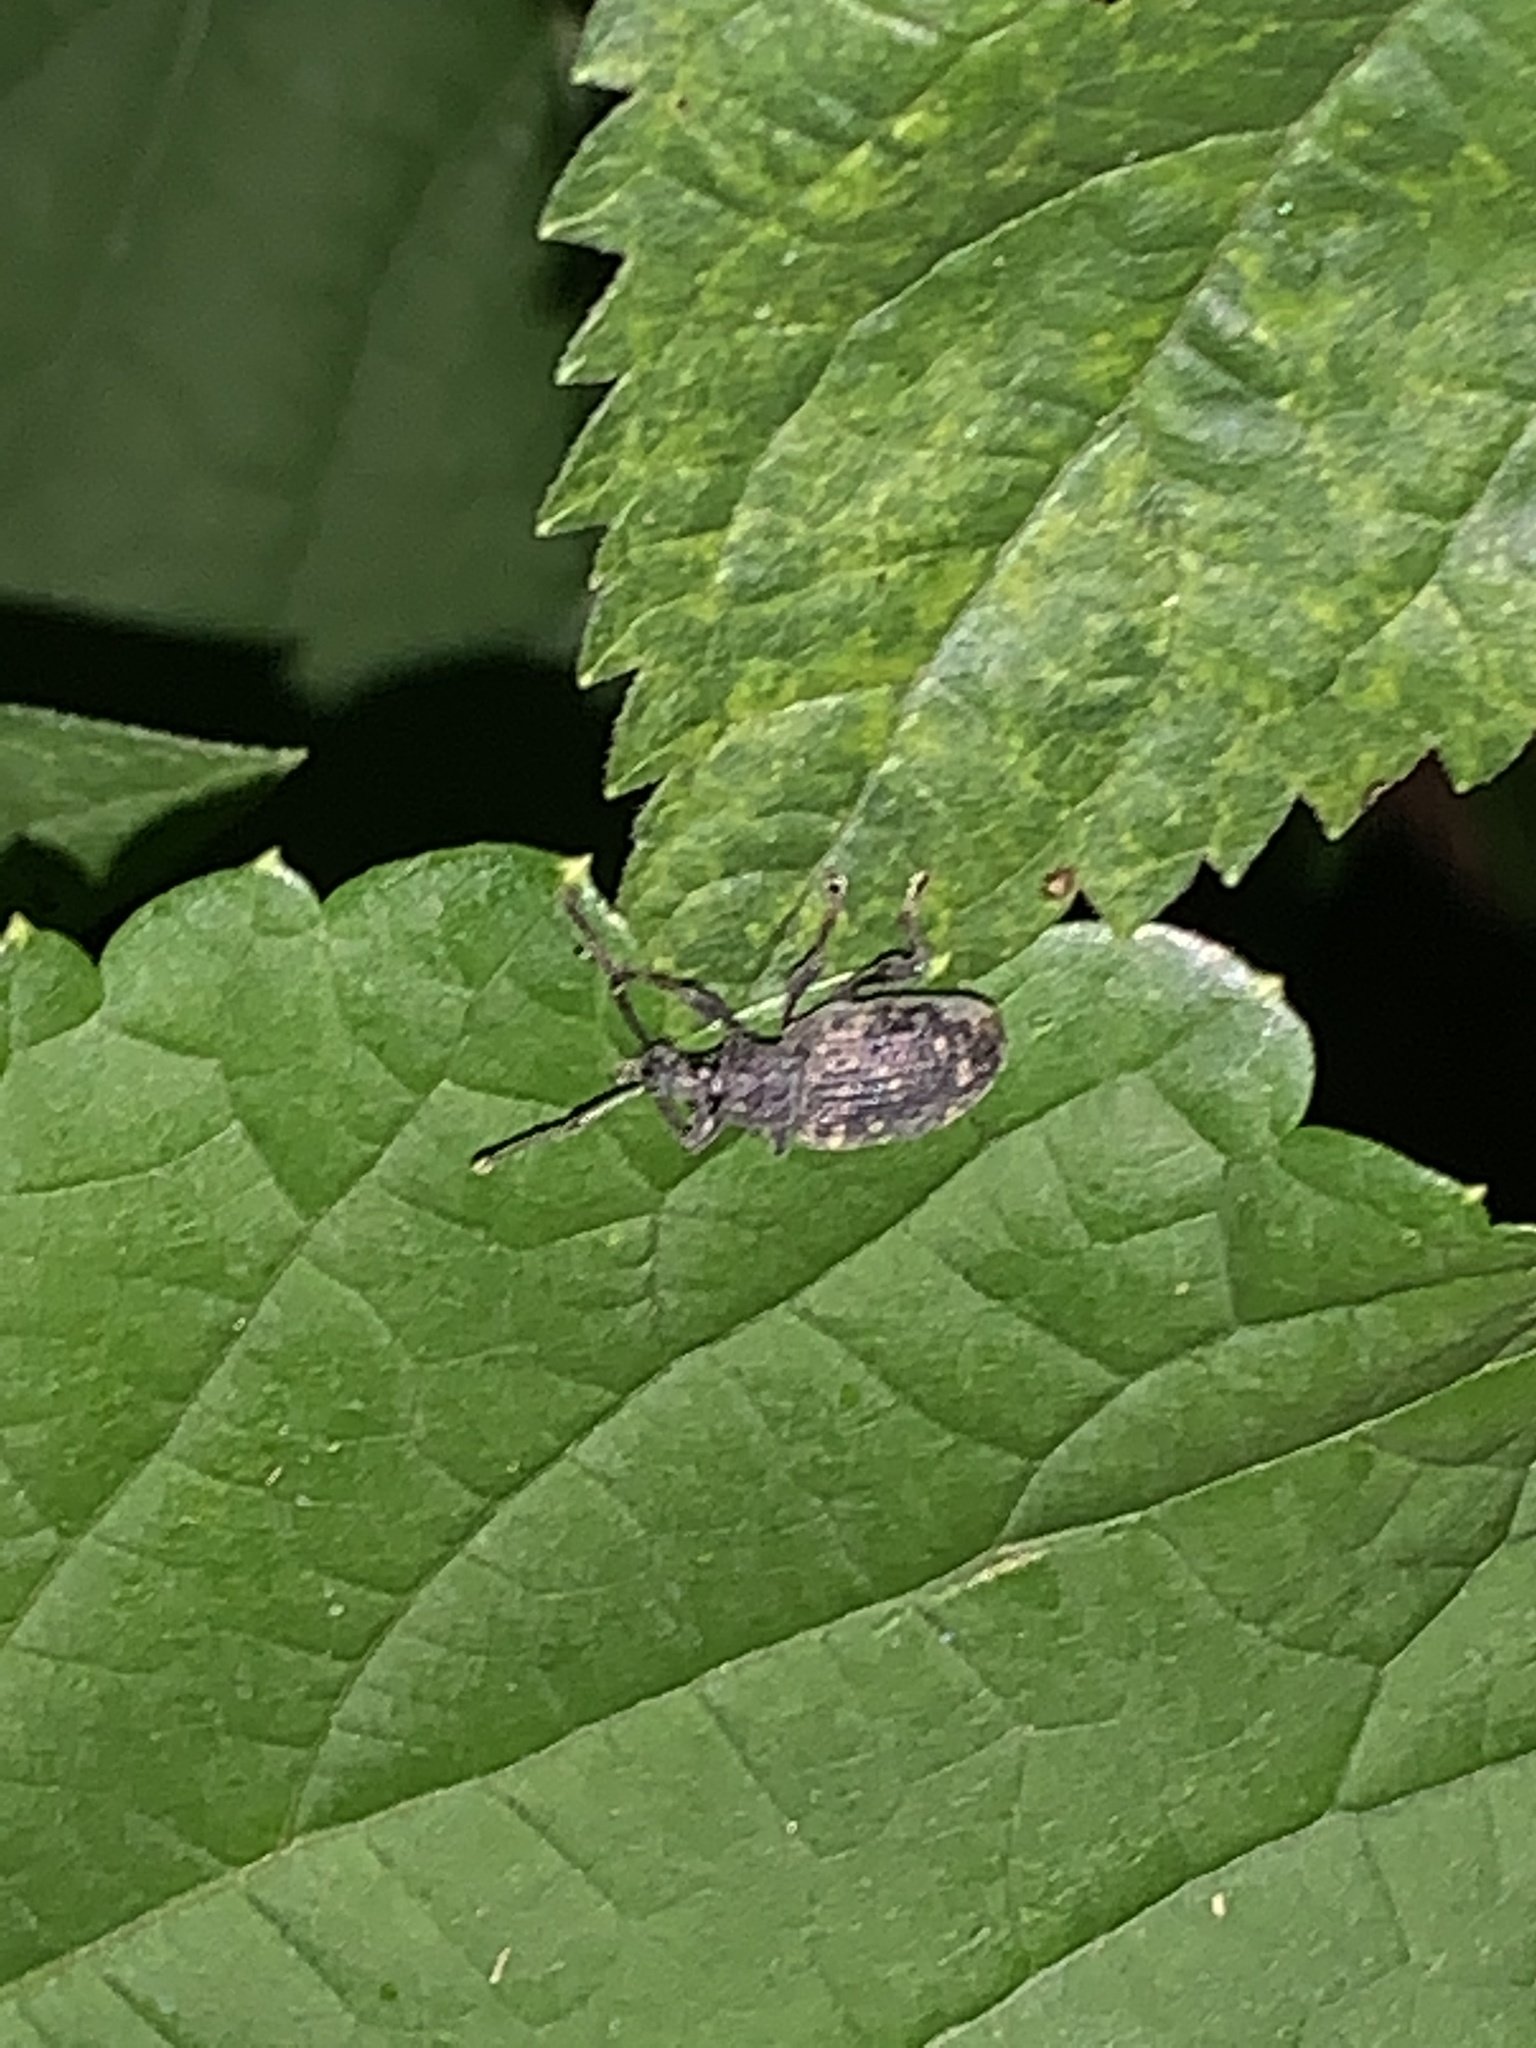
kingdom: Animalia
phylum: Arthropoda
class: Insecta
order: Coleoptera
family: Curculionidae
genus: Otiorhynchus
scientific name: Otiorhynchus sulcatus
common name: Black vine weevil
